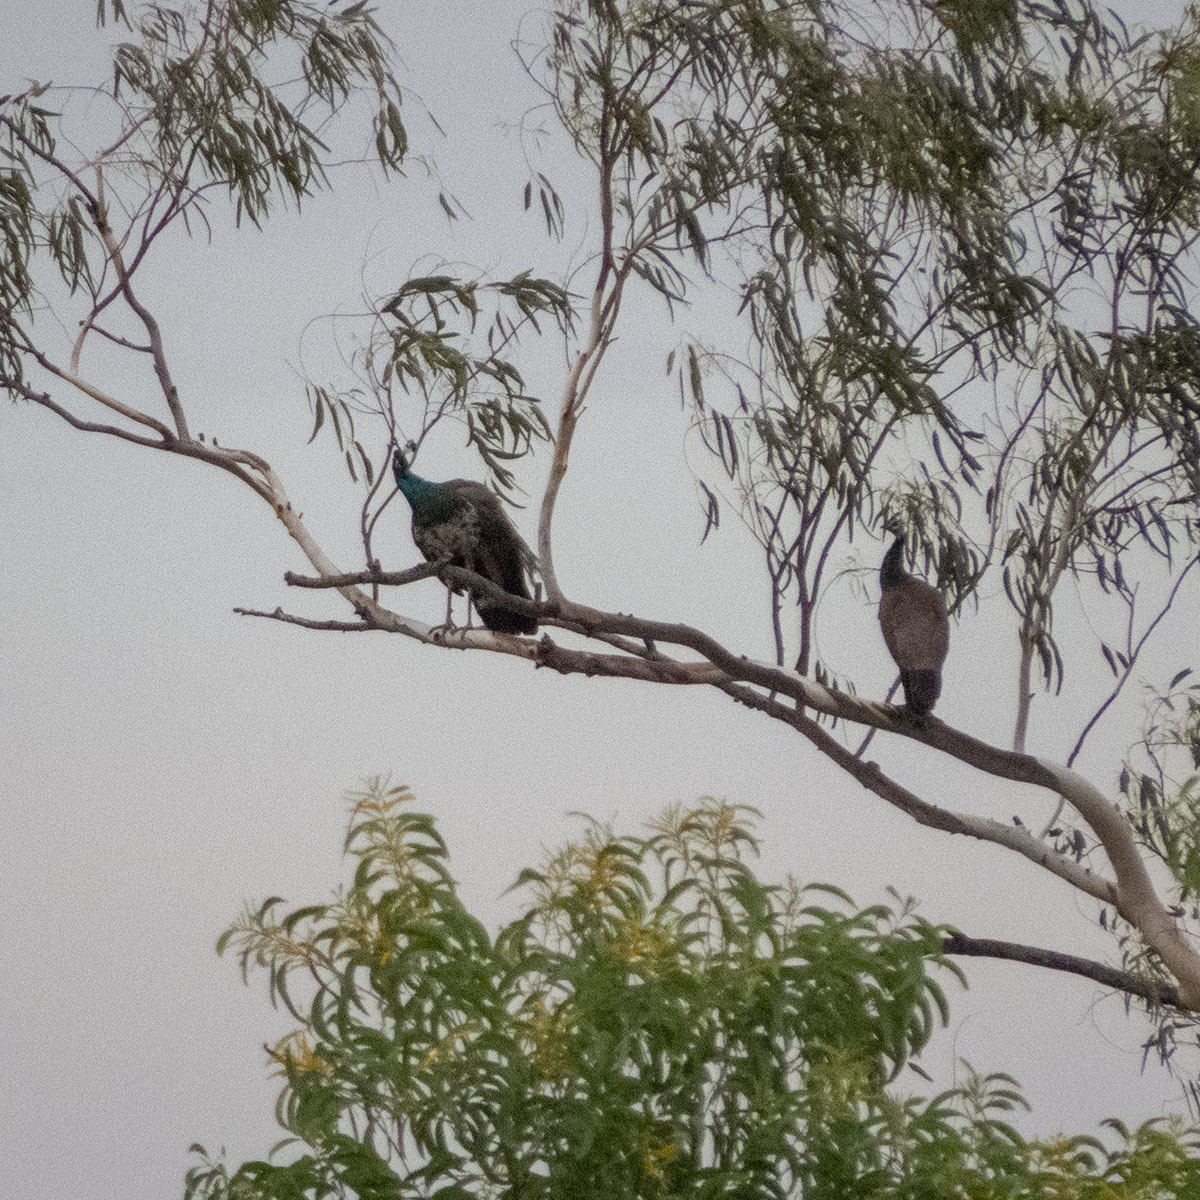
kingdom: Animalia
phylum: Chordata
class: Aves
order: Galliformes
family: Phasianidae
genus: Pavo
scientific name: Pavo cristatus
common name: Indian peafowl
